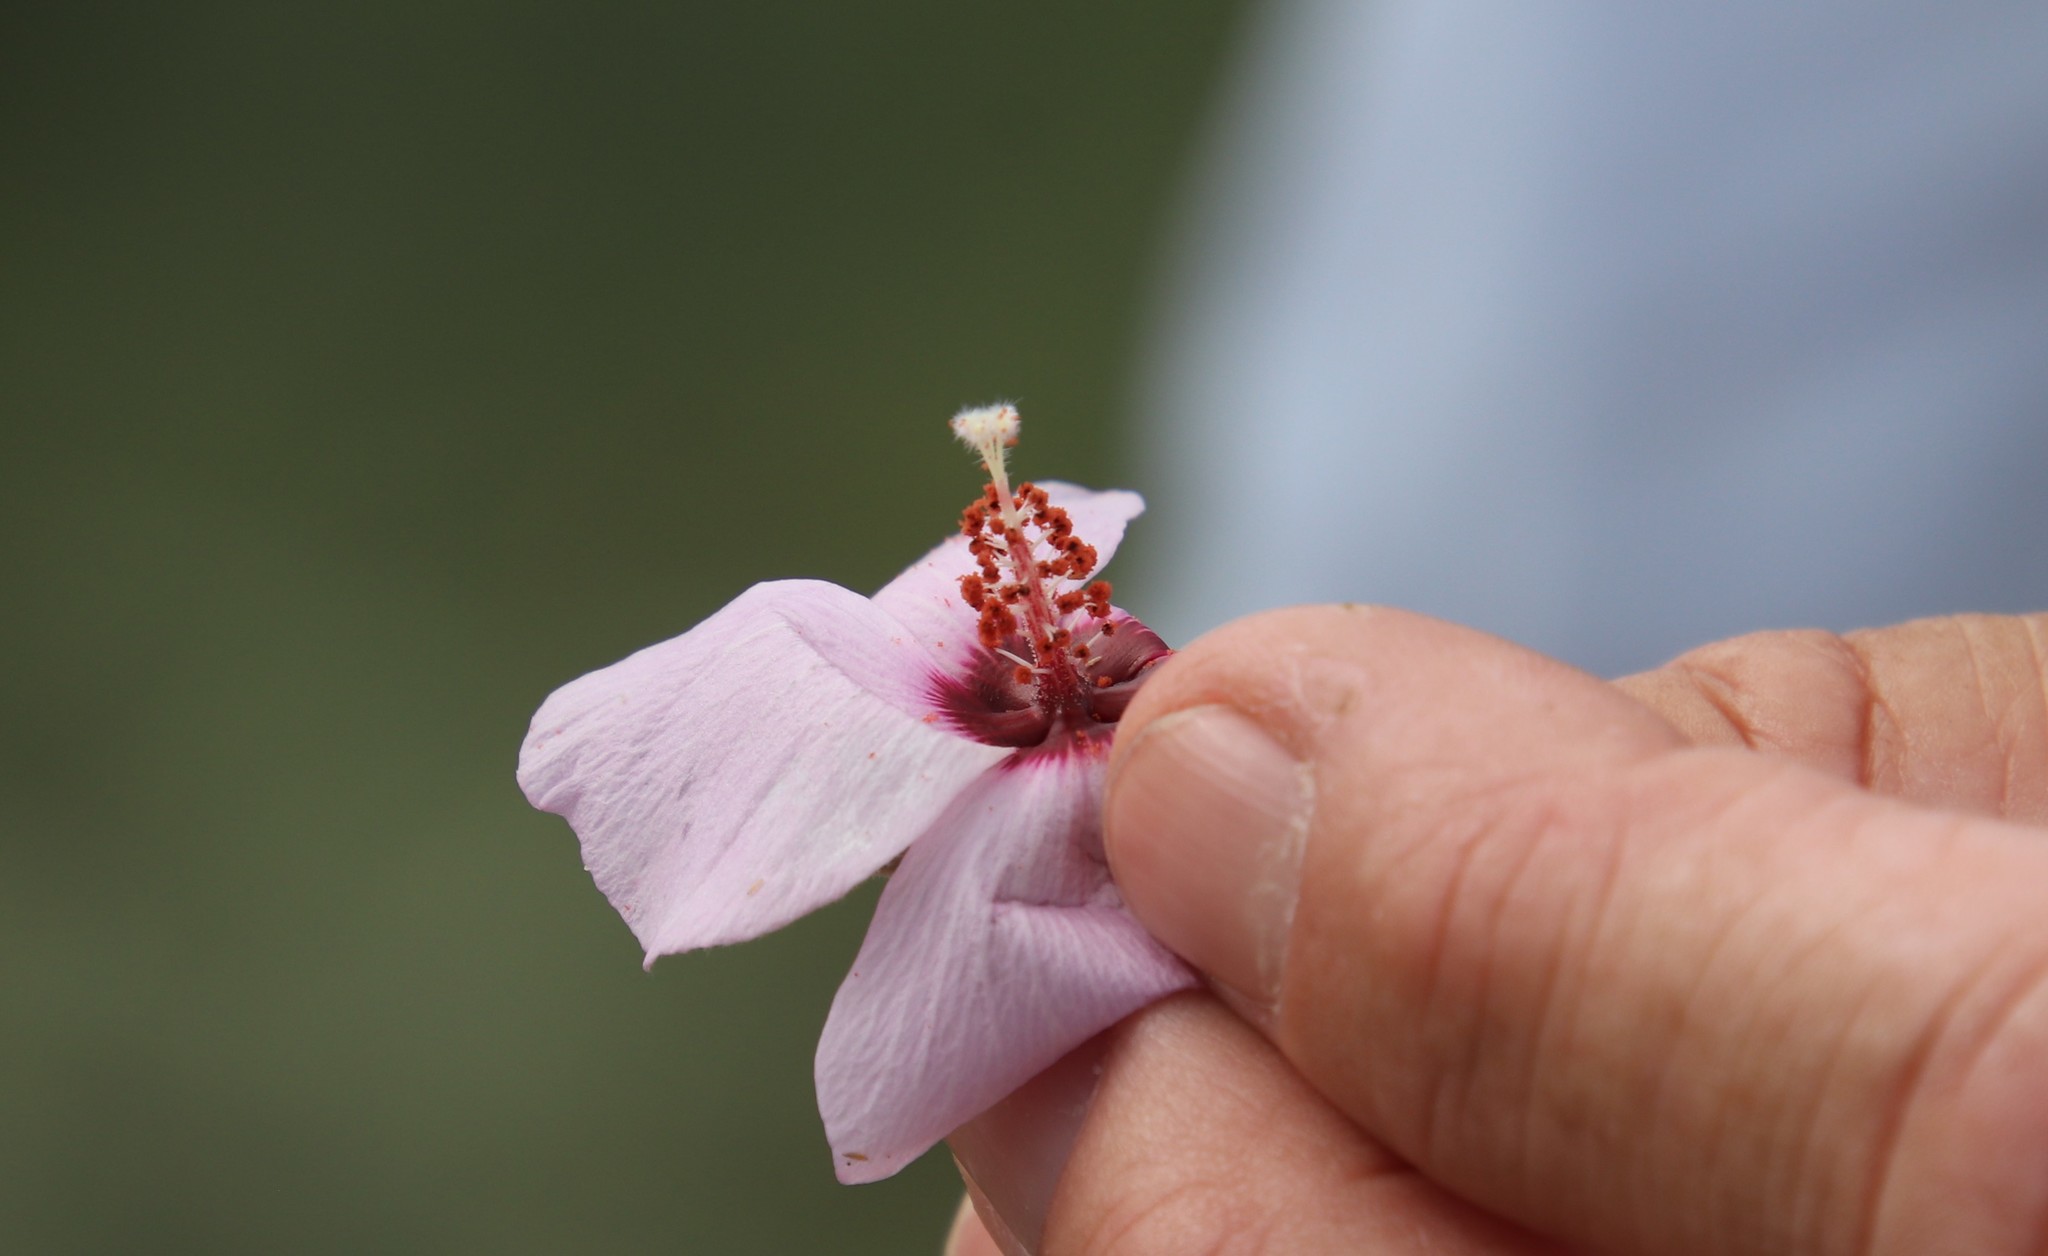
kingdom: Plantae
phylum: Tracheophyta
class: Magnoliopsida
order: Malvales
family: Malvaceae
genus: Hibiscus
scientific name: Hibiscus denudatus
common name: Paleface
